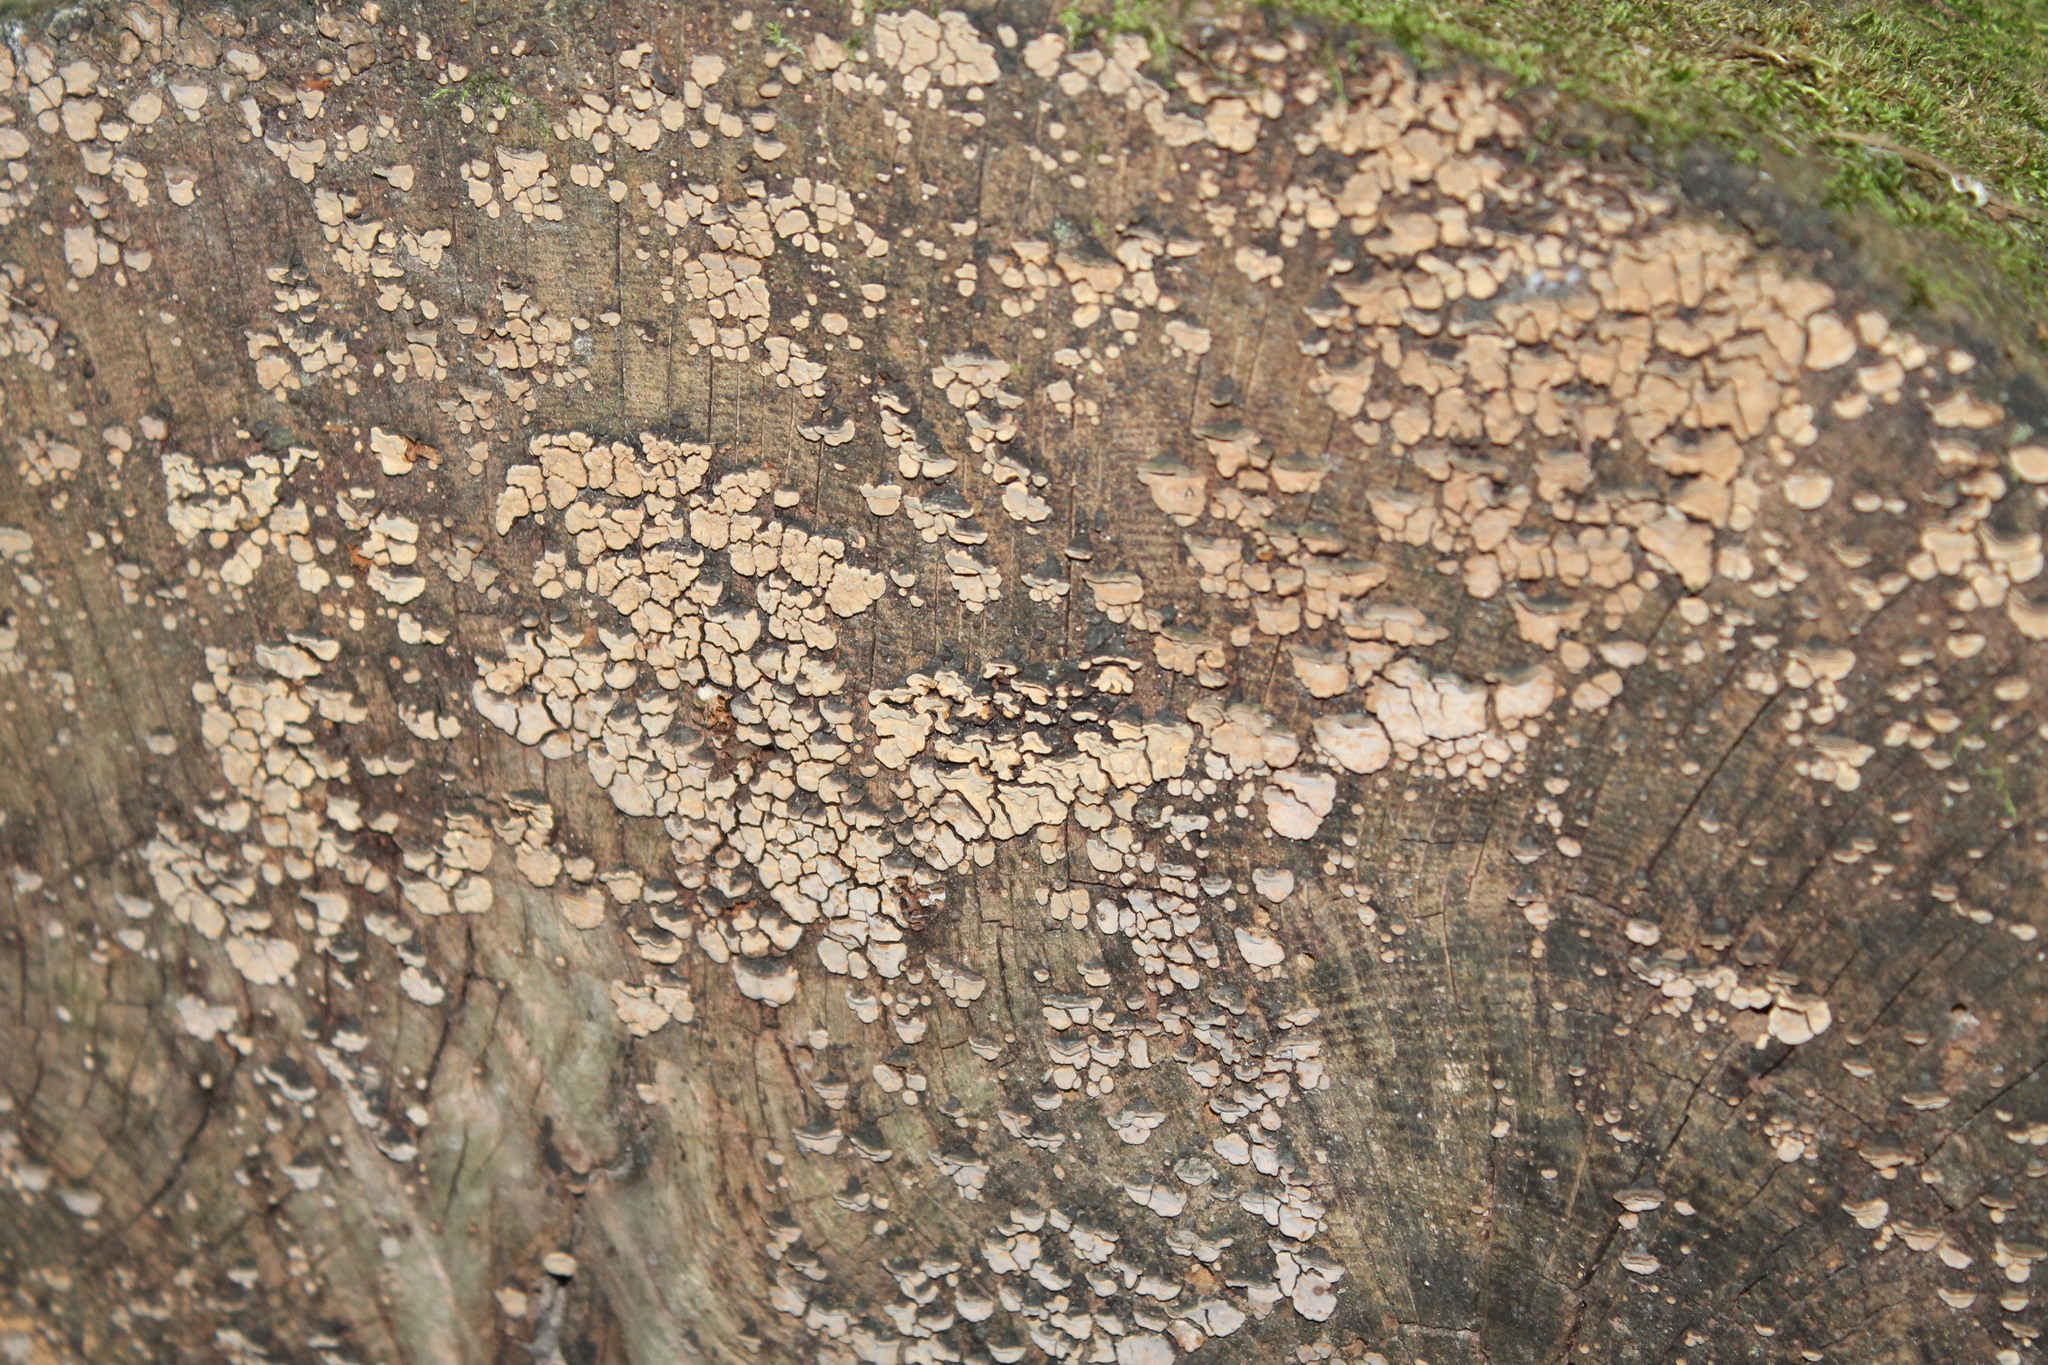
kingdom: Fungi
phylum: Basidiomycota
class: Agaricomycetes
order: Russulales
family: Stereaceae
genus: Xylobolus
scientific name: Xylobolus frustulatus
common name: Ceramic parchment
